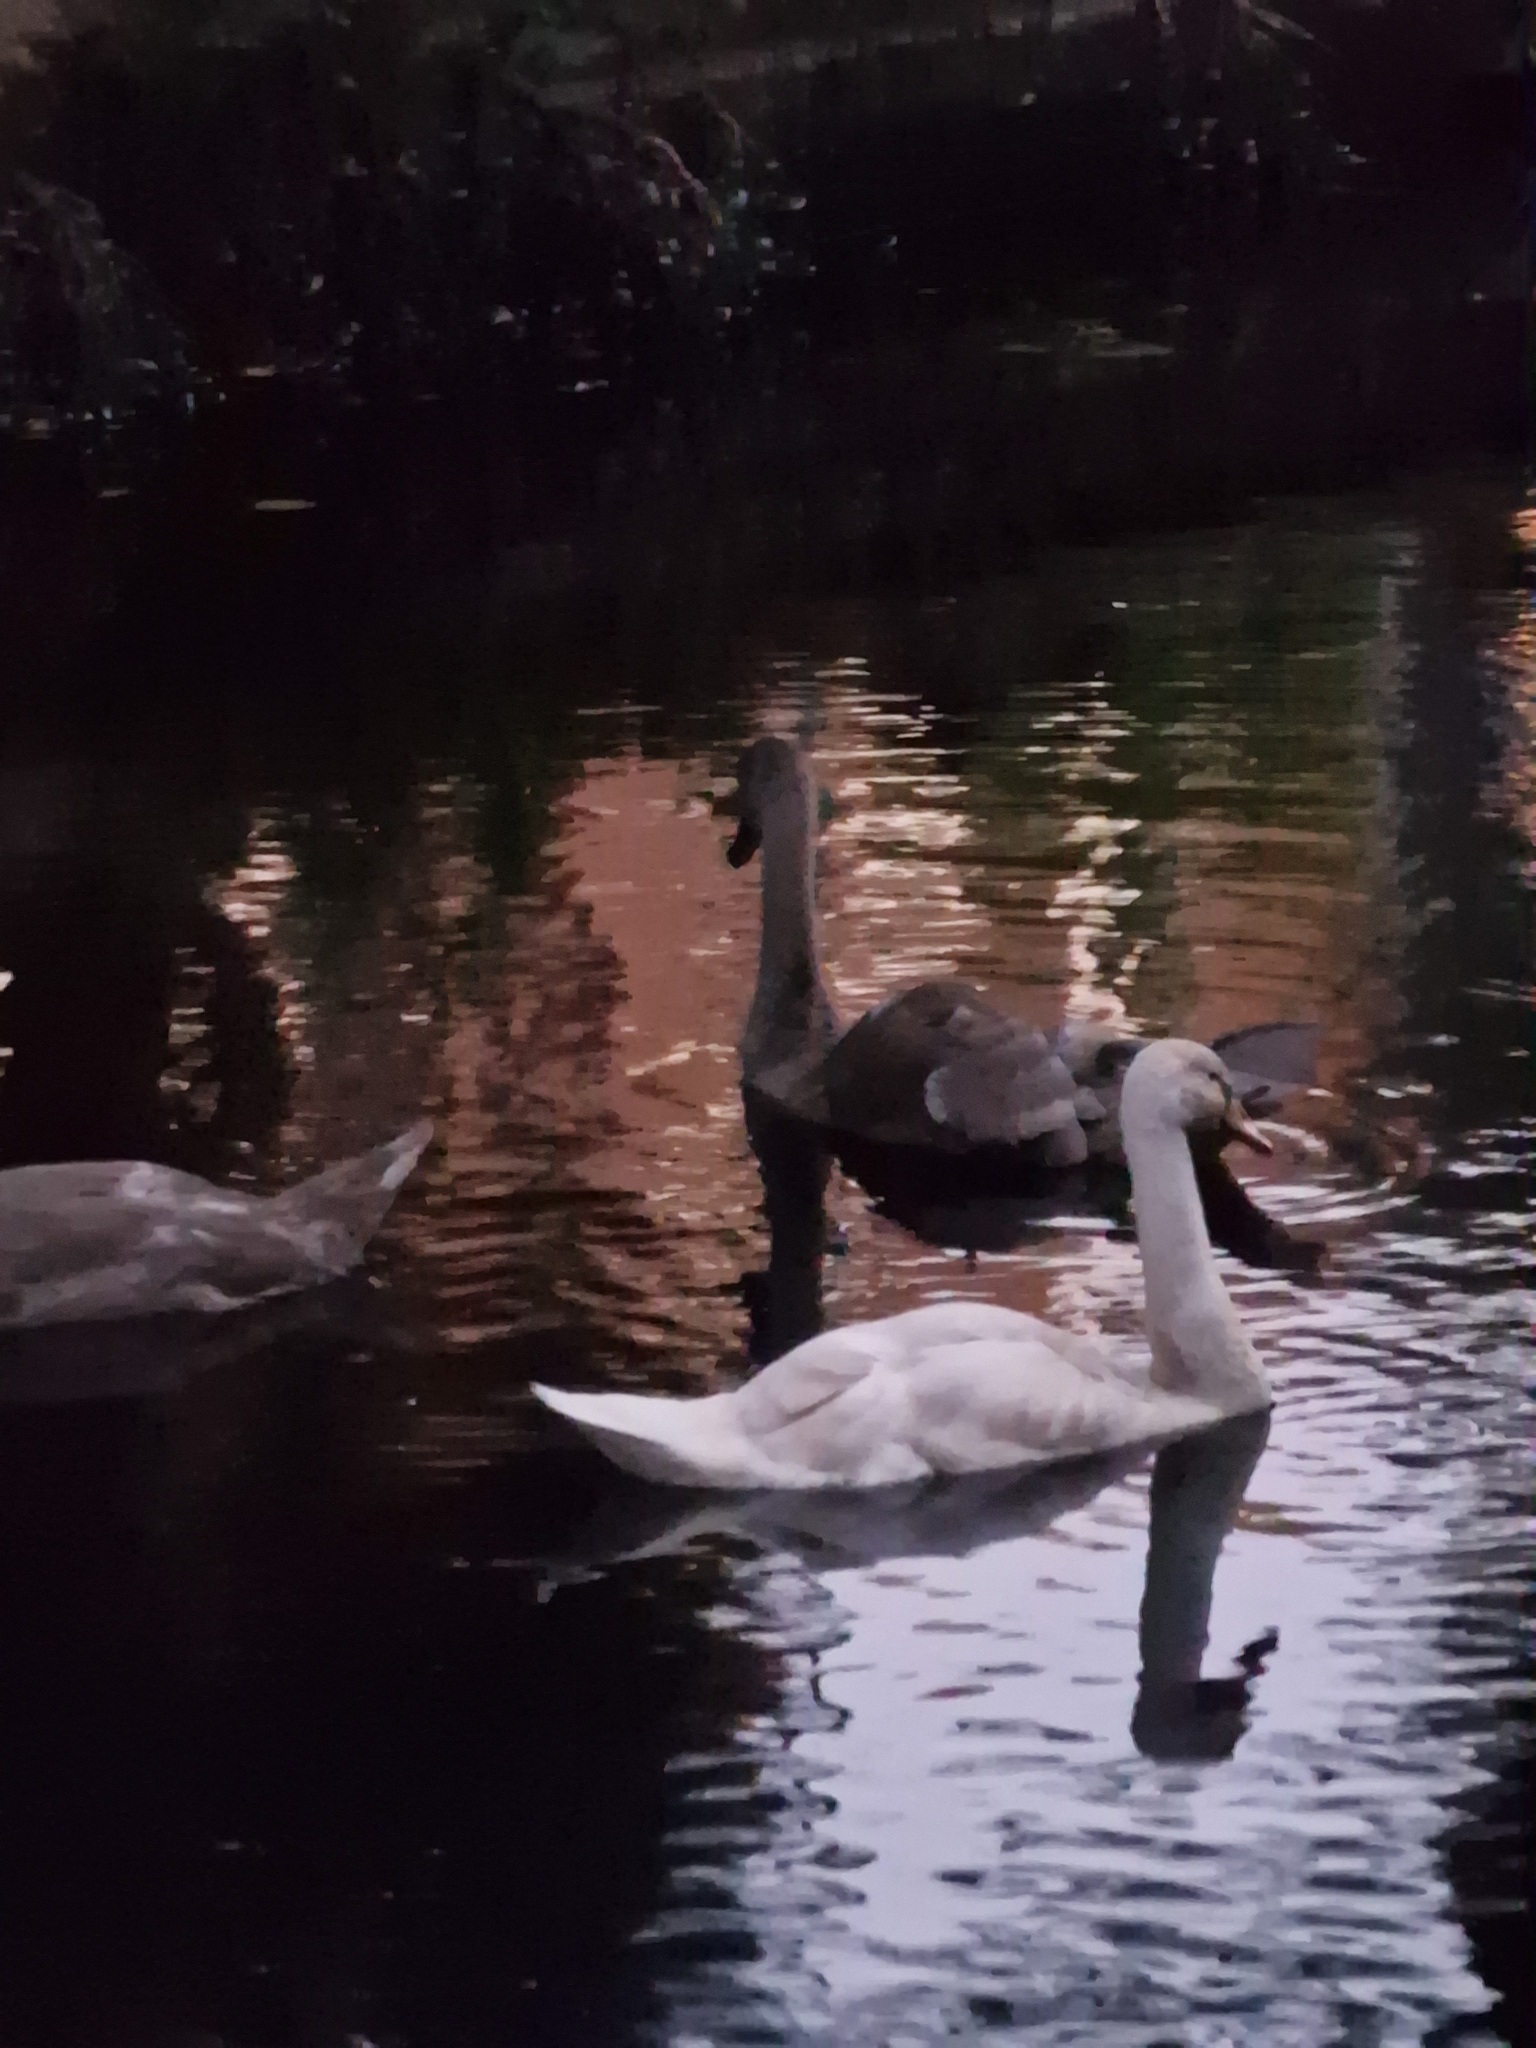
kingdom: Animalia
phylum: Chordata
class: Aves
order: Anseriformes
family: Anatidae
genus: Cygnus
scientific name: Cygnus olor
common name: Mute swan
